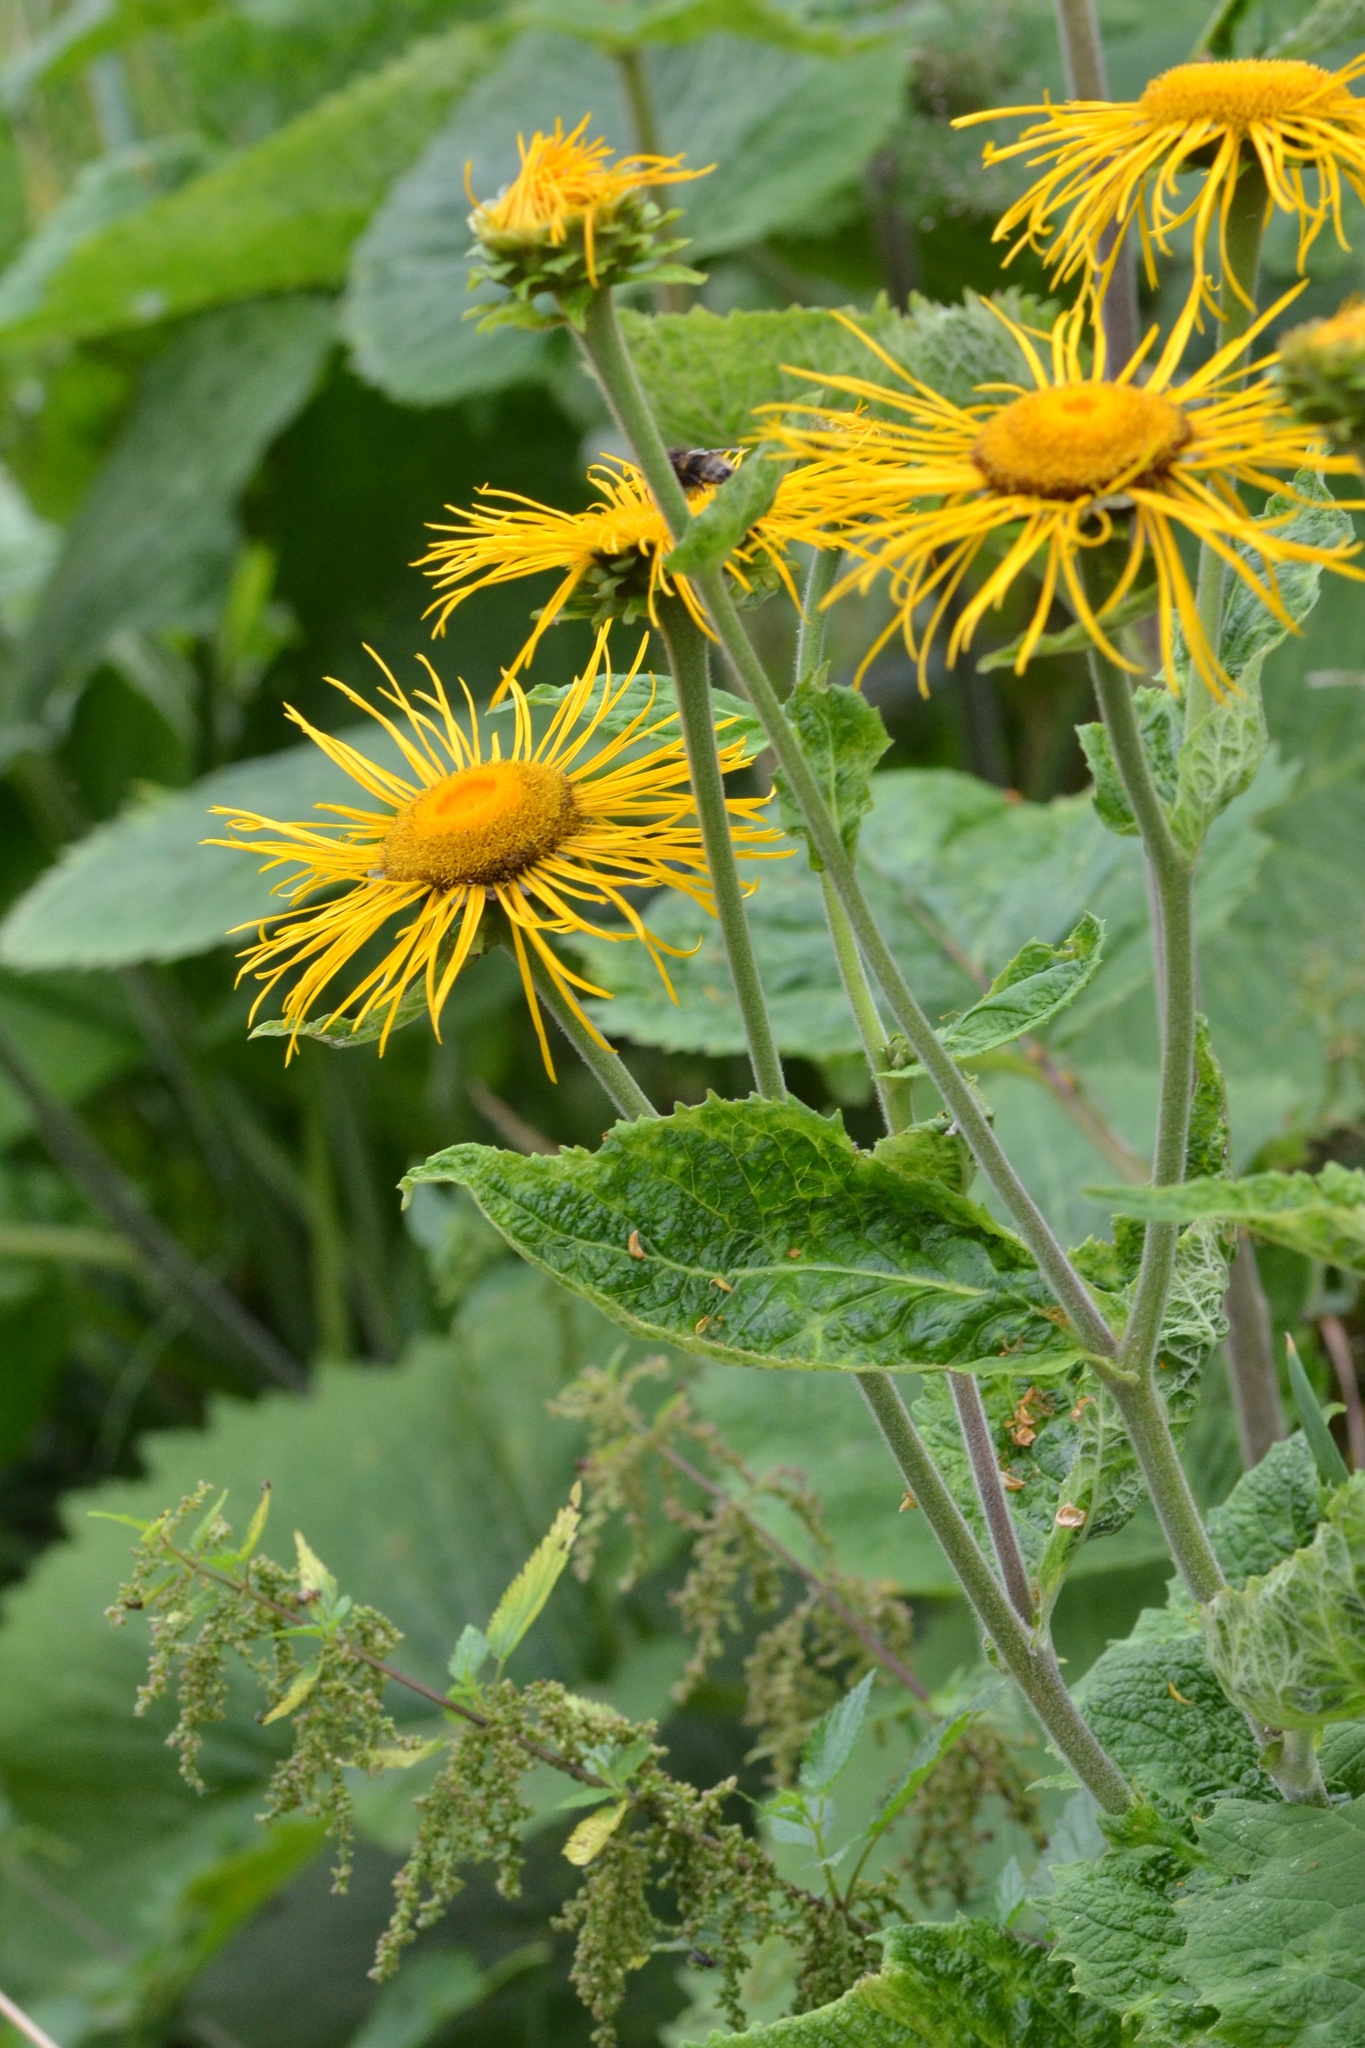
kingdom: Plantae
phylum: Tracheophyta
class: Magnoliopsida
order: Asterales
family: Asteraceae
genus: Telekia
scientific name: Telekia speciosa
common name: Yellow oxeye
